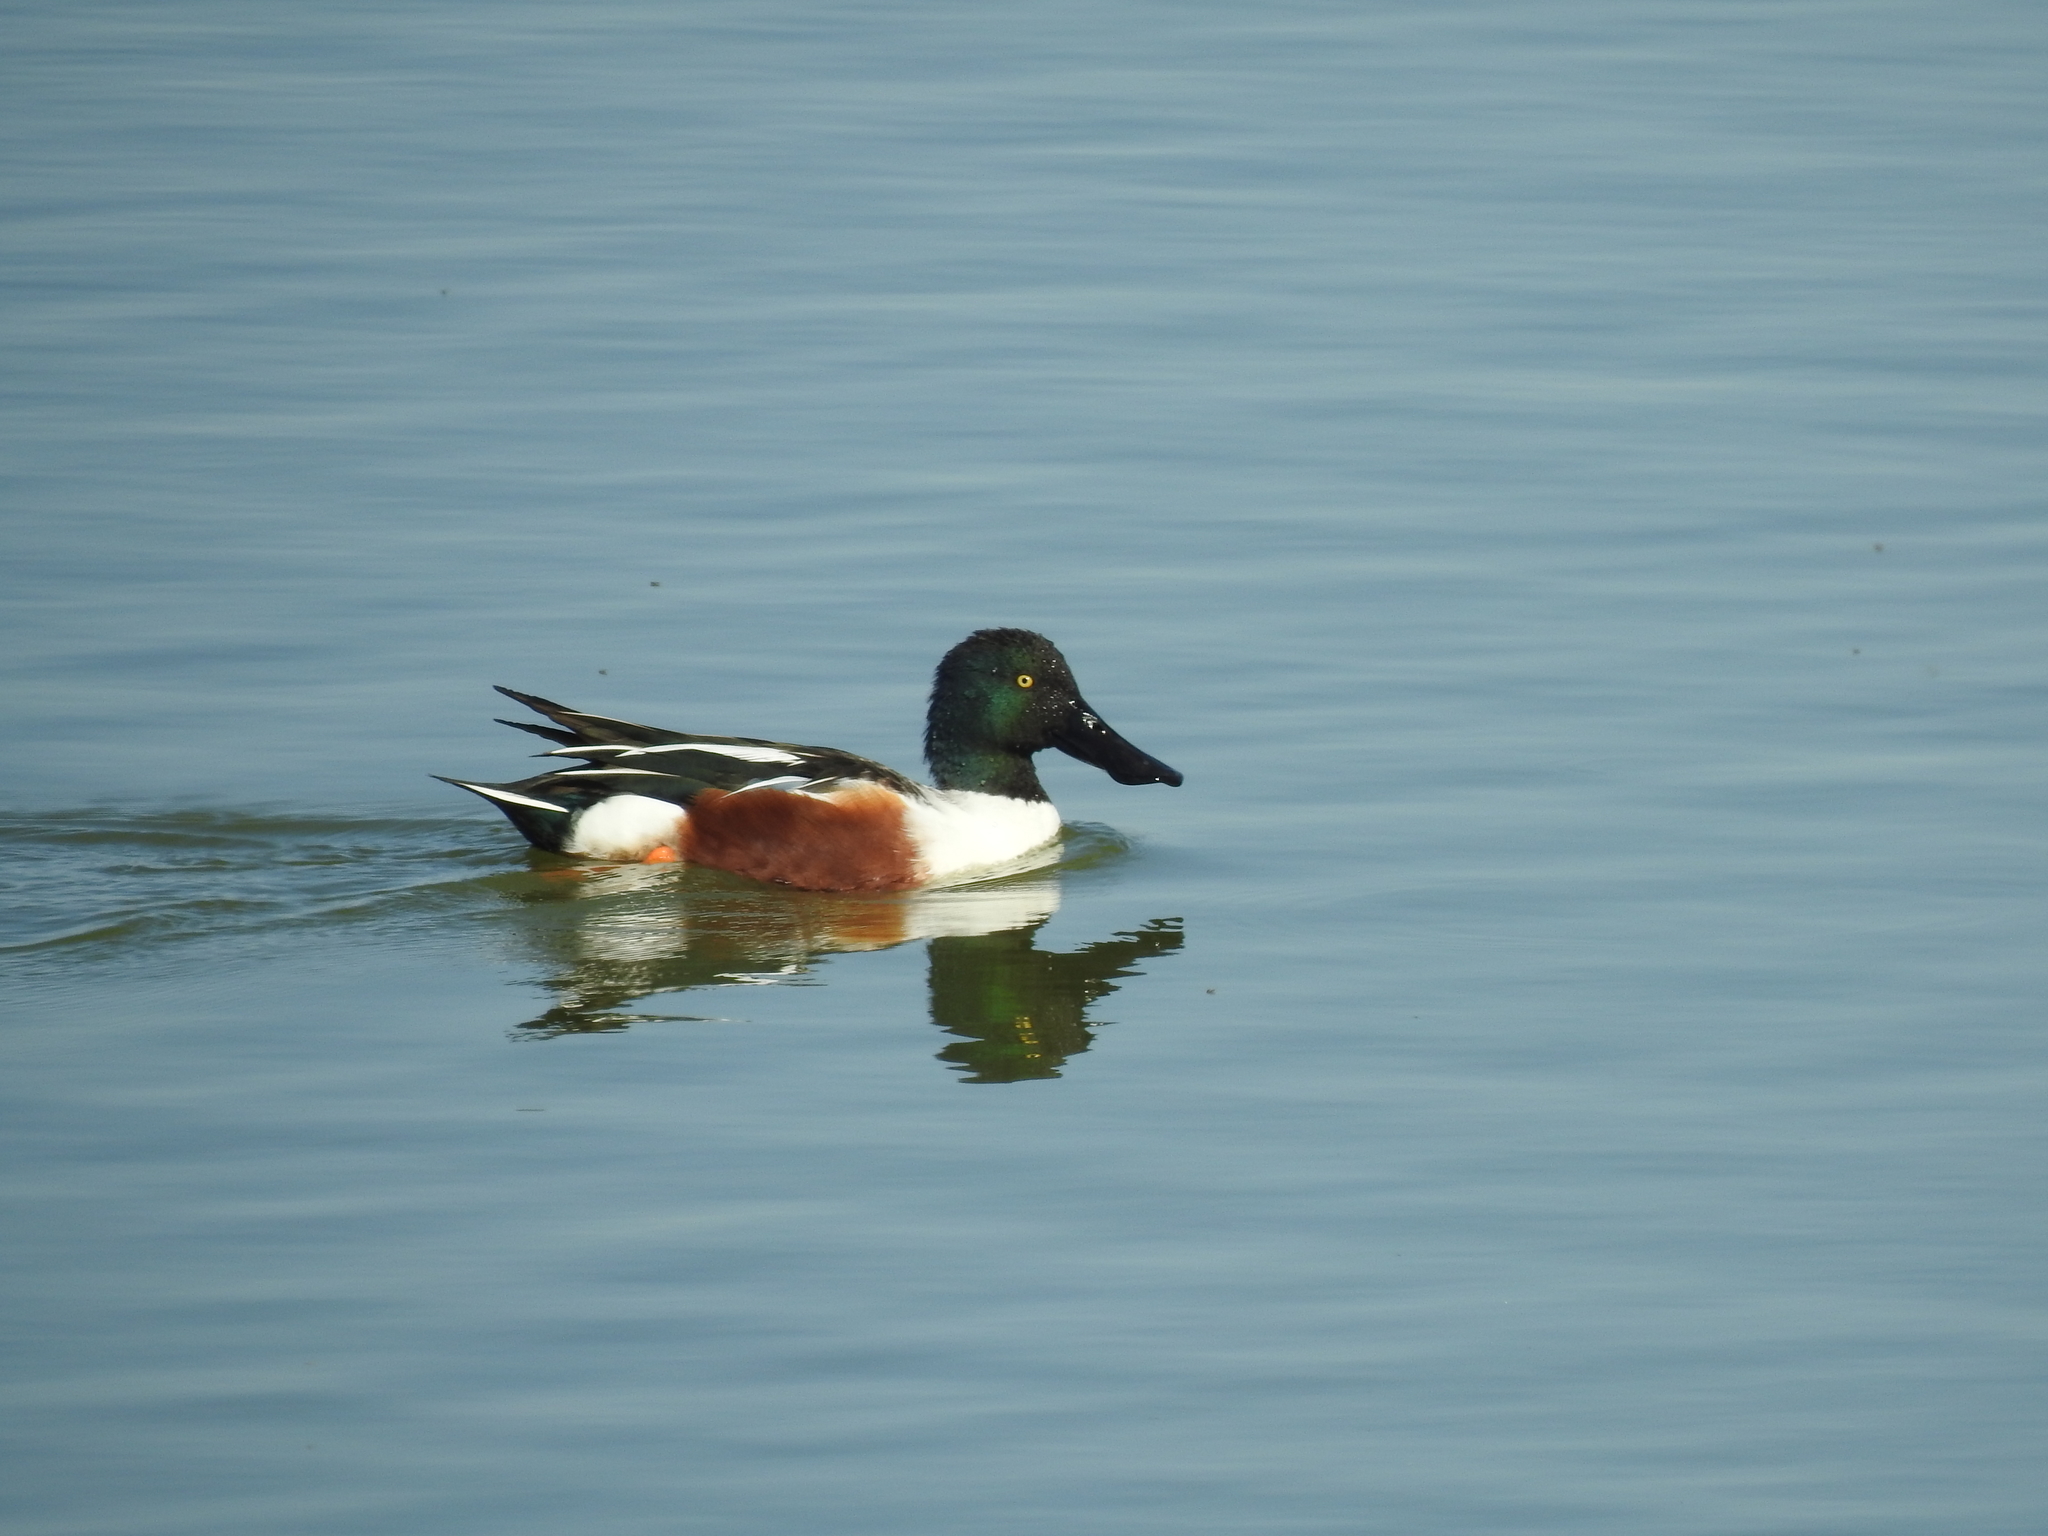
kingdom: Animalia
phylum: Chordata
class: Aves
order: Anseriformes
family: Anatidae
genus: Spatula
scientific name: Spatula clypeata
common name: Northern shoveler
